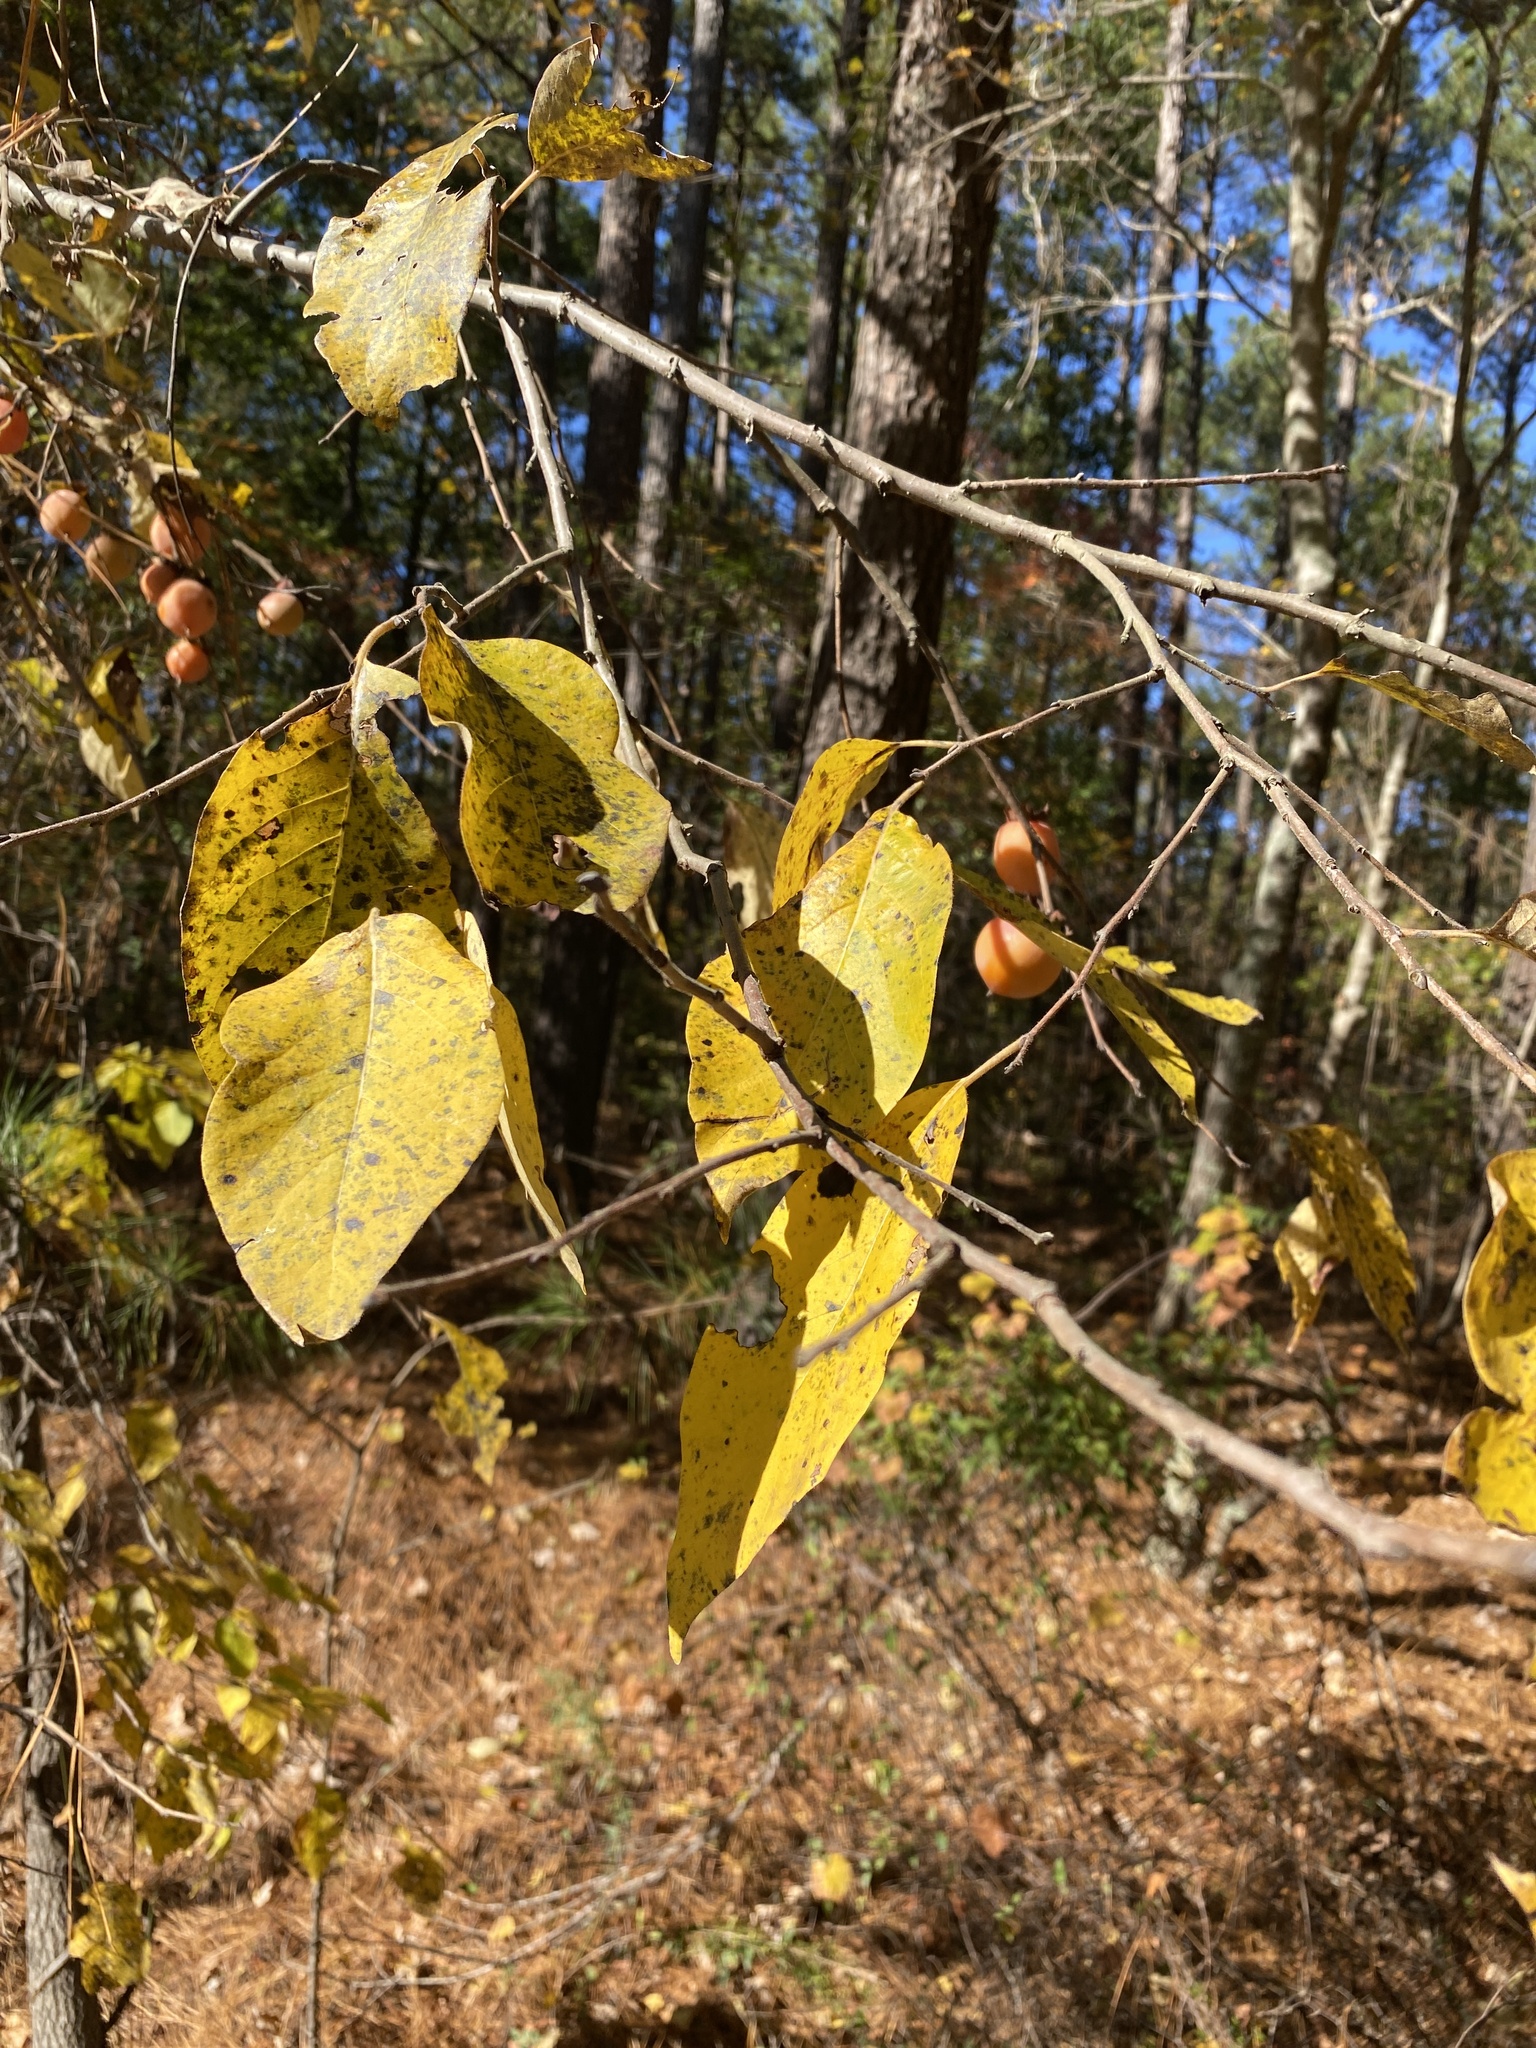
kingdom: Plantae
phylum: Tracheophyta
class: Magnoliopsida
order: Ericales
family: Ebenaceae
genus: Diospyros
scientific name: Diospyros virginiana
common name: Persimmon
